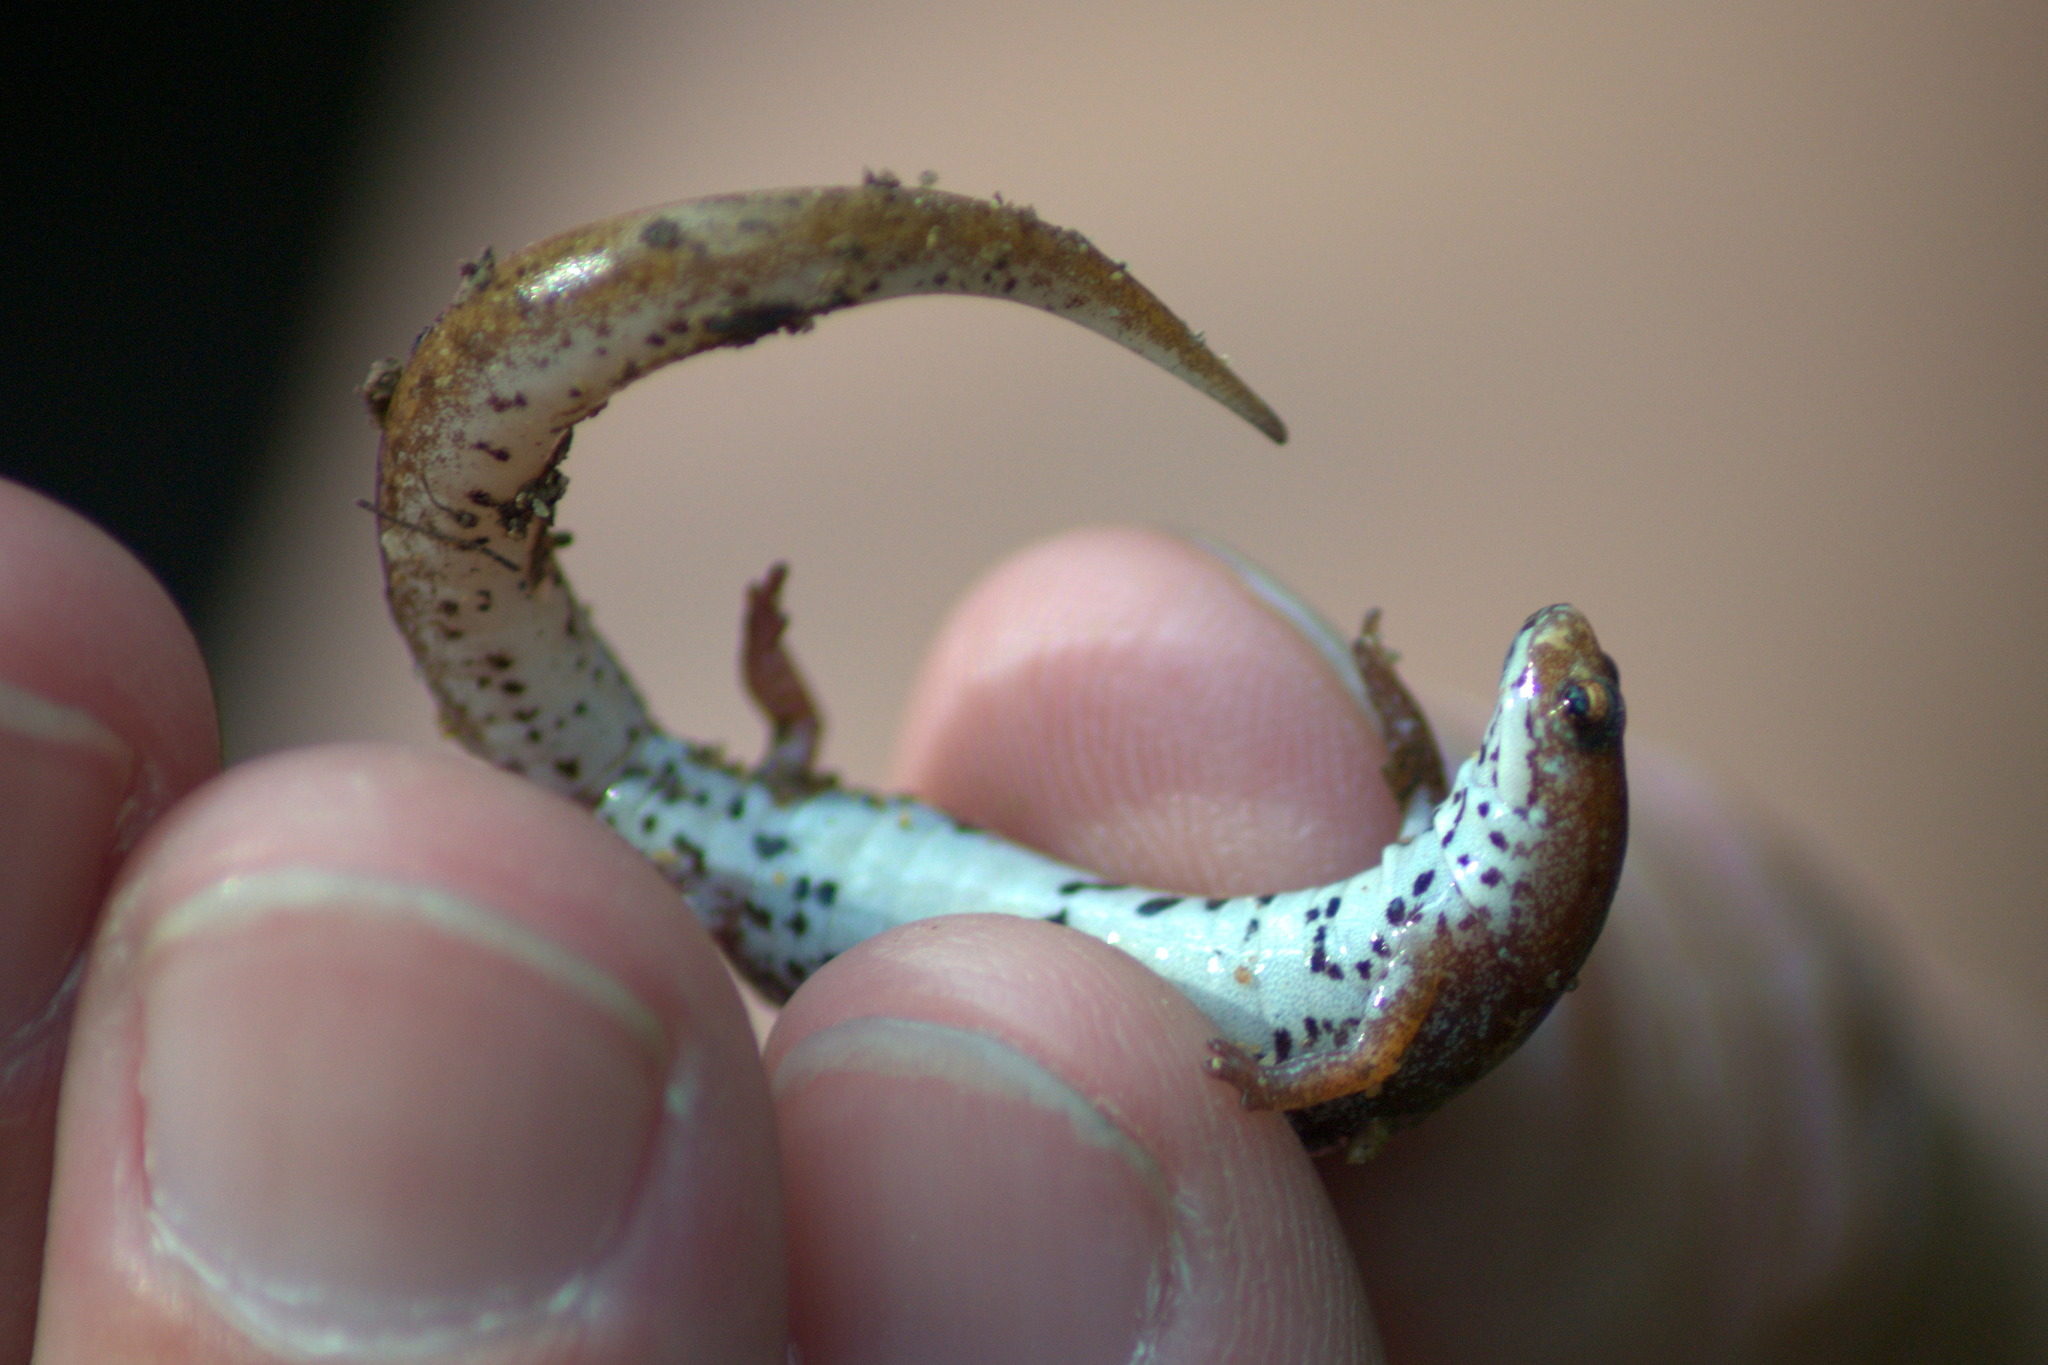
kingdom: Animalia
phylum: Chordata
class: Amphibia
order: Caudata
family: Plethodontidae
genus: Hemidactylium
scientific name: Hemidactylium scutatum
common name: Four-toed salamander
